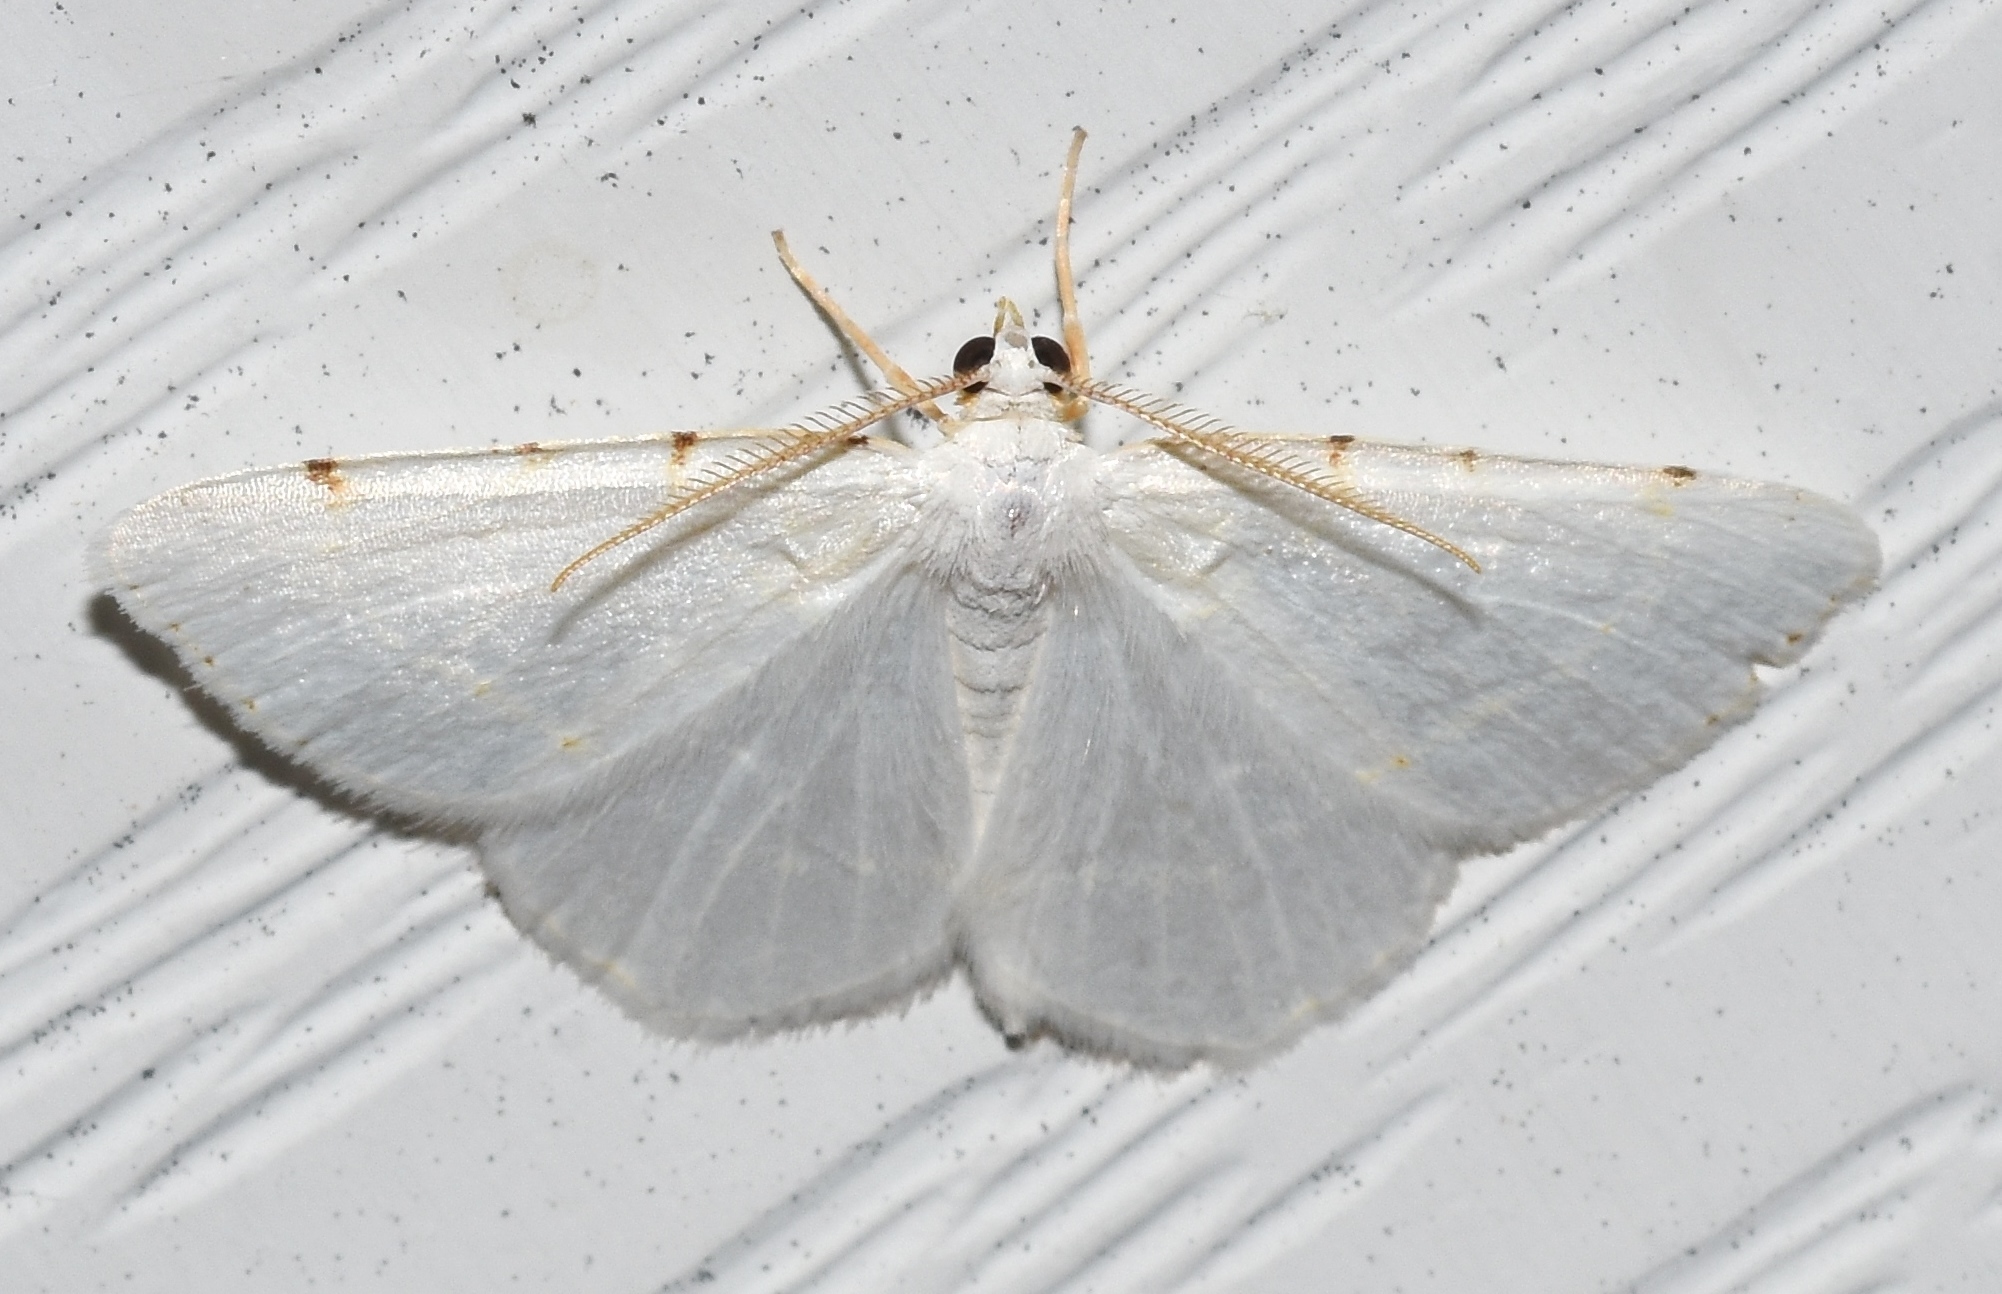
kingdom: Animalia
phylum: Arthropoda
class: Insecta
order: Lepidoptera
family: Geometridae
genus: Macaria
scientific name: Macaria pustularia
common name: Lesser maple spanworm moth
